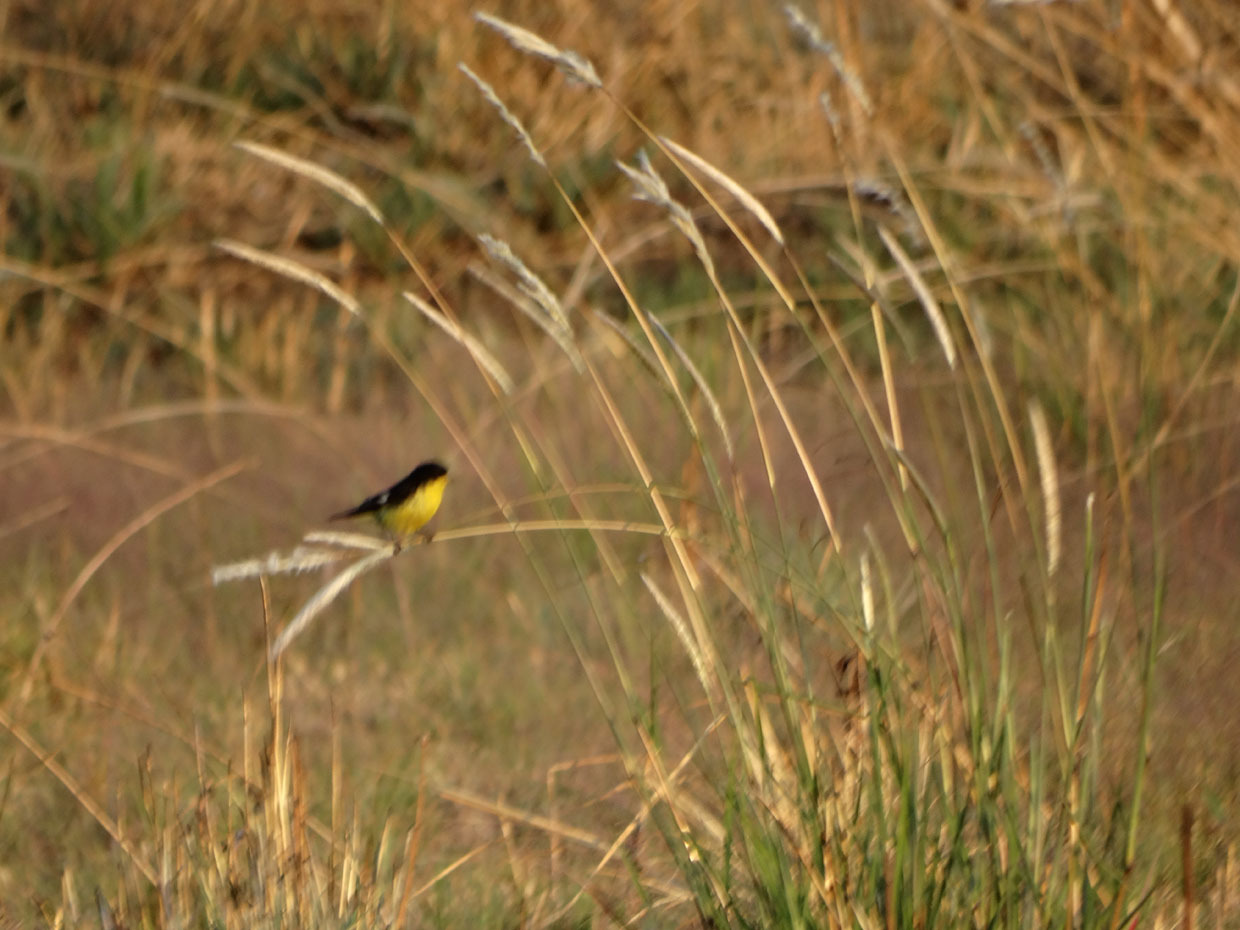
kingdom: Animalia
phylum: Chordata
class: Aves
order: Passeriformes
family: Fringillidae
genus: Spinus
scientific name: Spinus psaltria
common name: Lesser goldfinch
